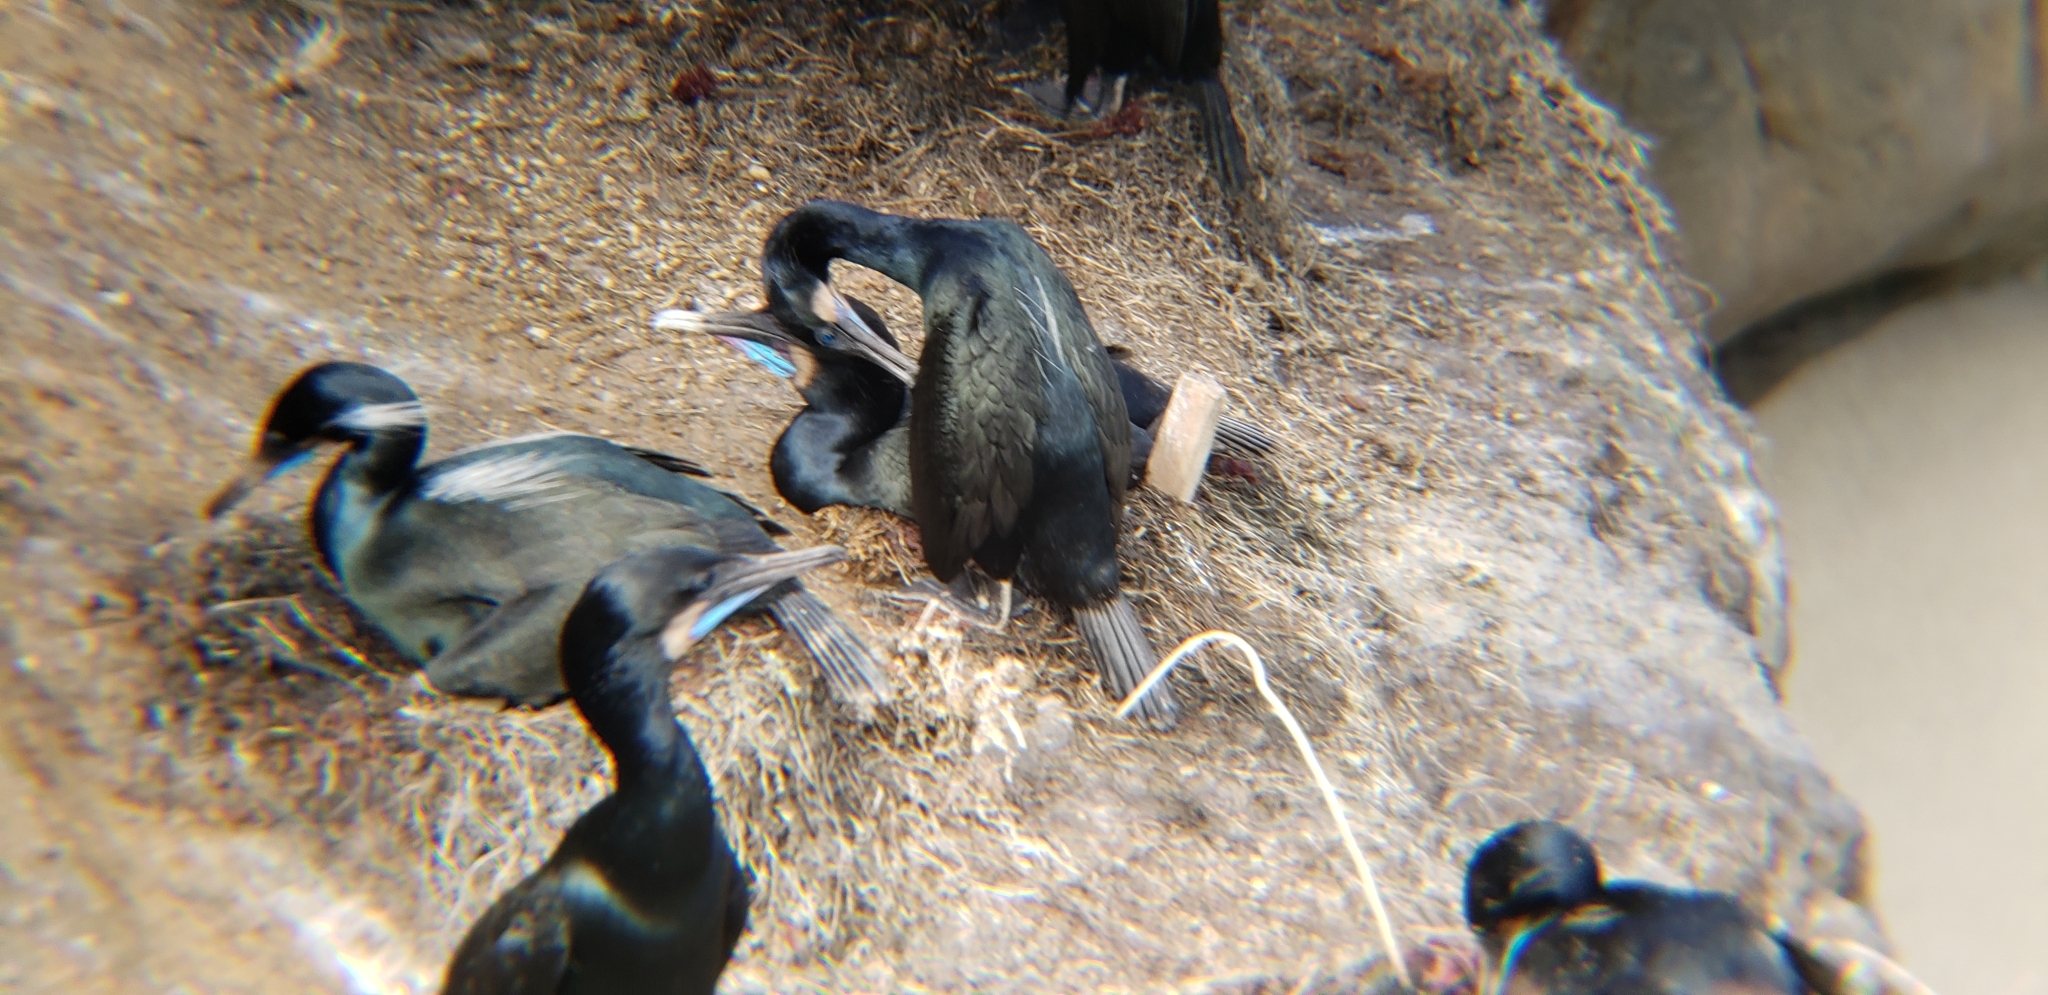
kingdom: Animalia
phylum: Chordata
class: Aves
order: Suliformes
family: Phalacrocoracidae
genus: Urile
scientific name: Urile penicillatus
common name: Brandt's cormorant
